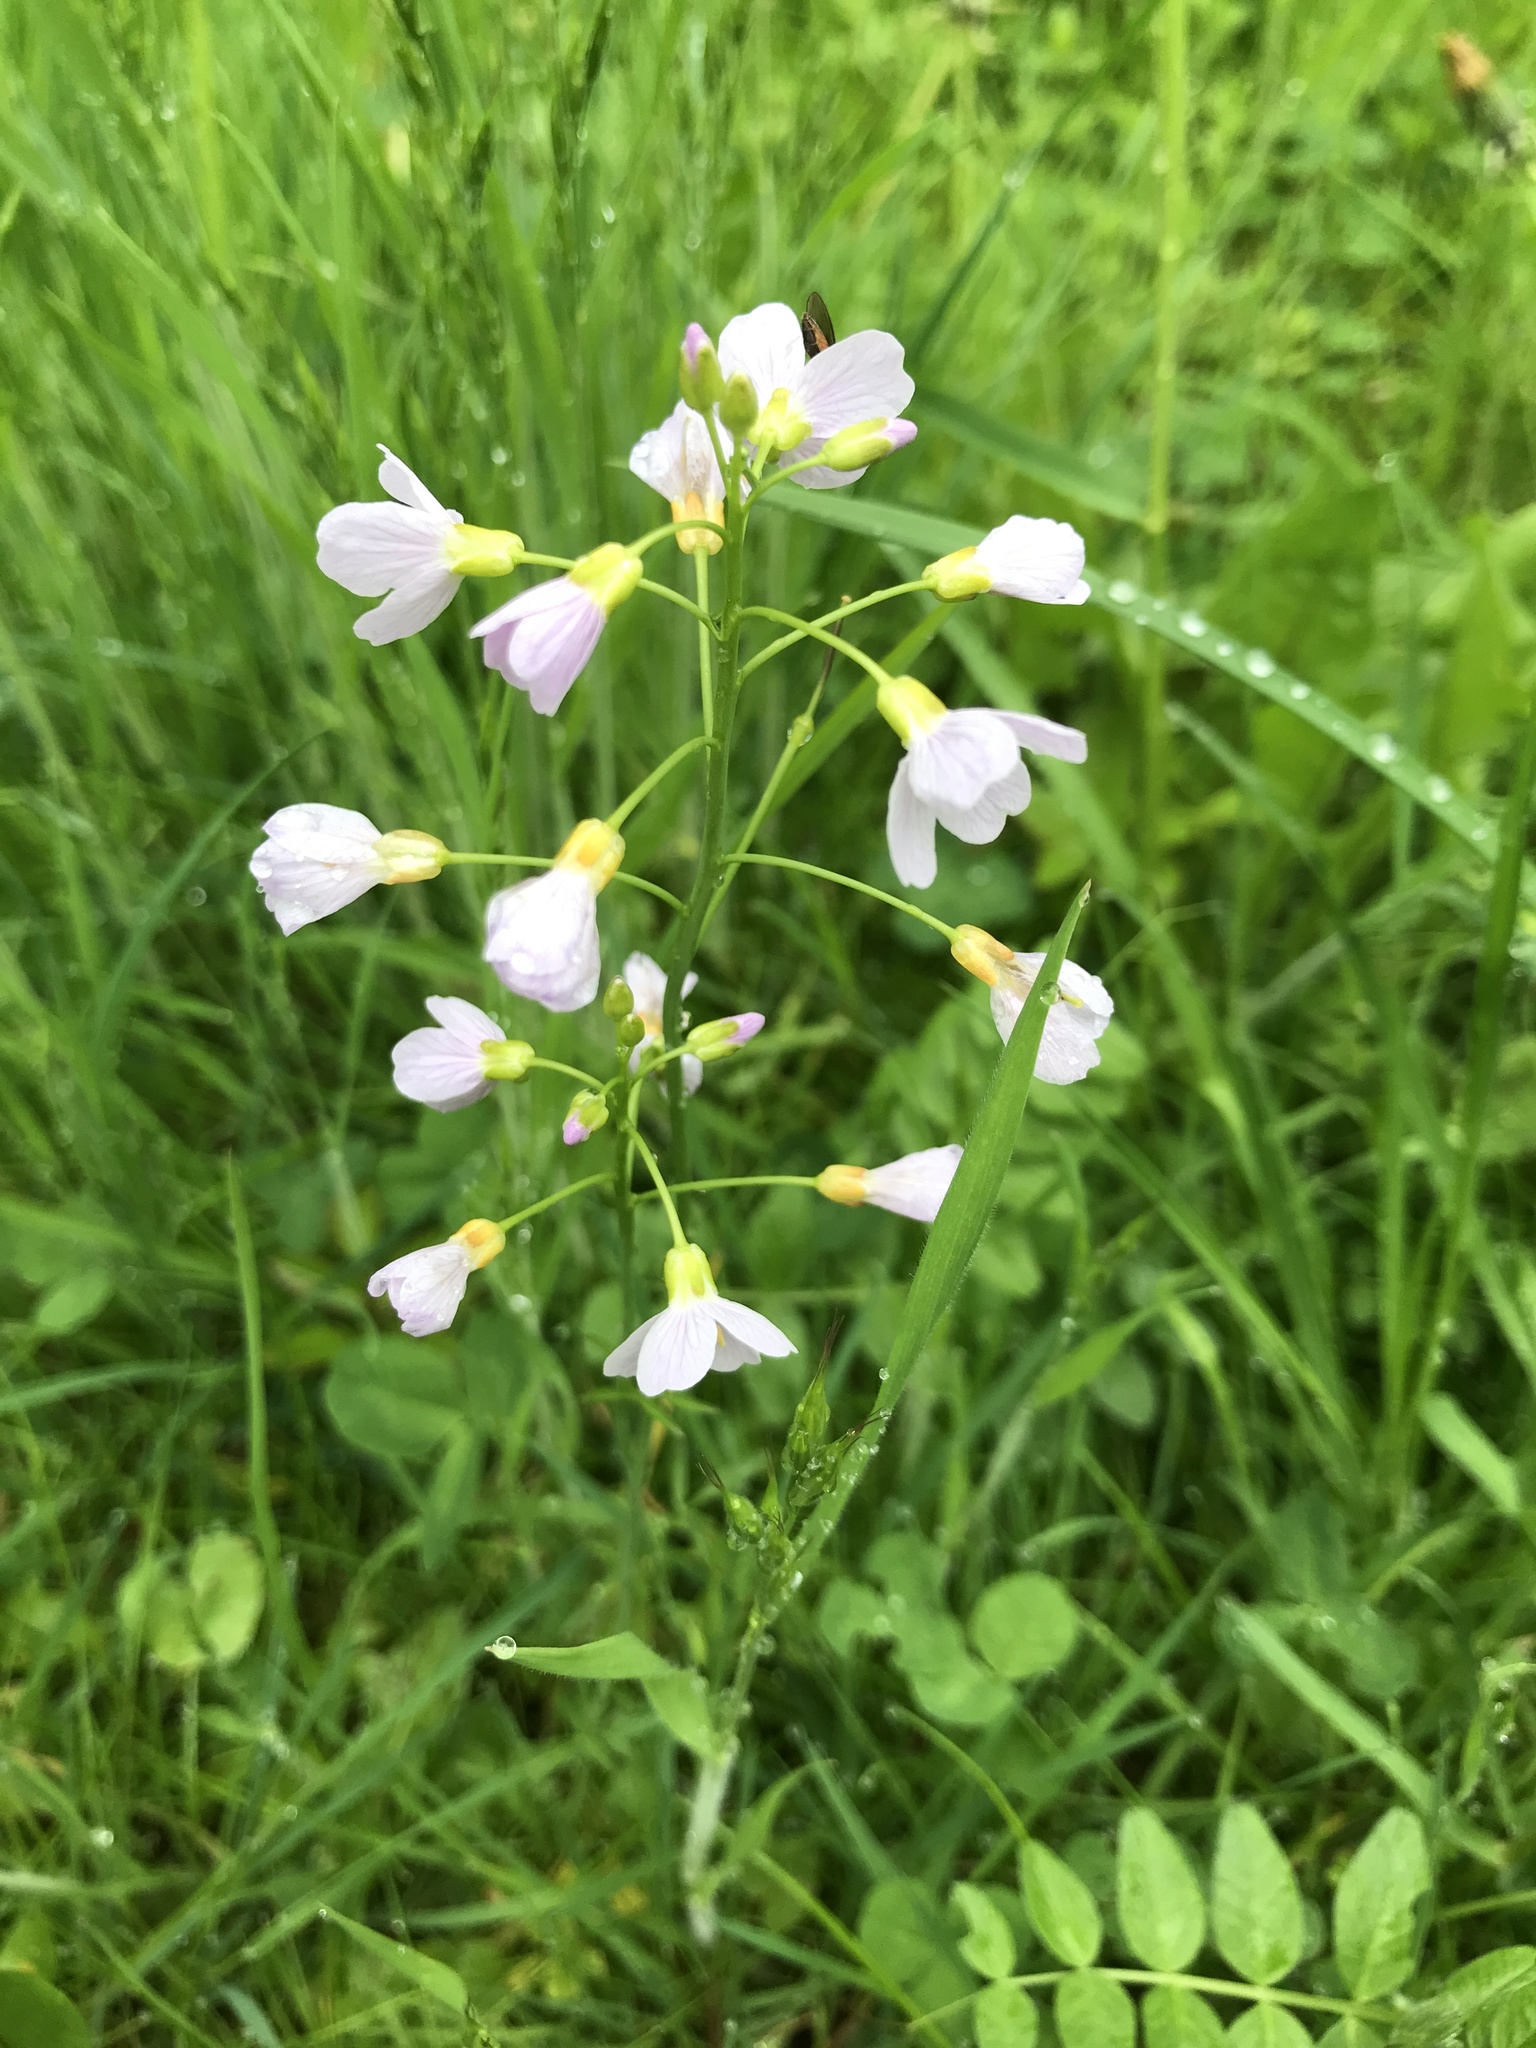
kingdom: Plantae
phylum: Tracheophyta
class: Magnoliopsida
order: Brassicales
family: Brassicaceae
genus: Cardamine
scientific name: Cardamine pratensis
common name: Cuckoo flower
